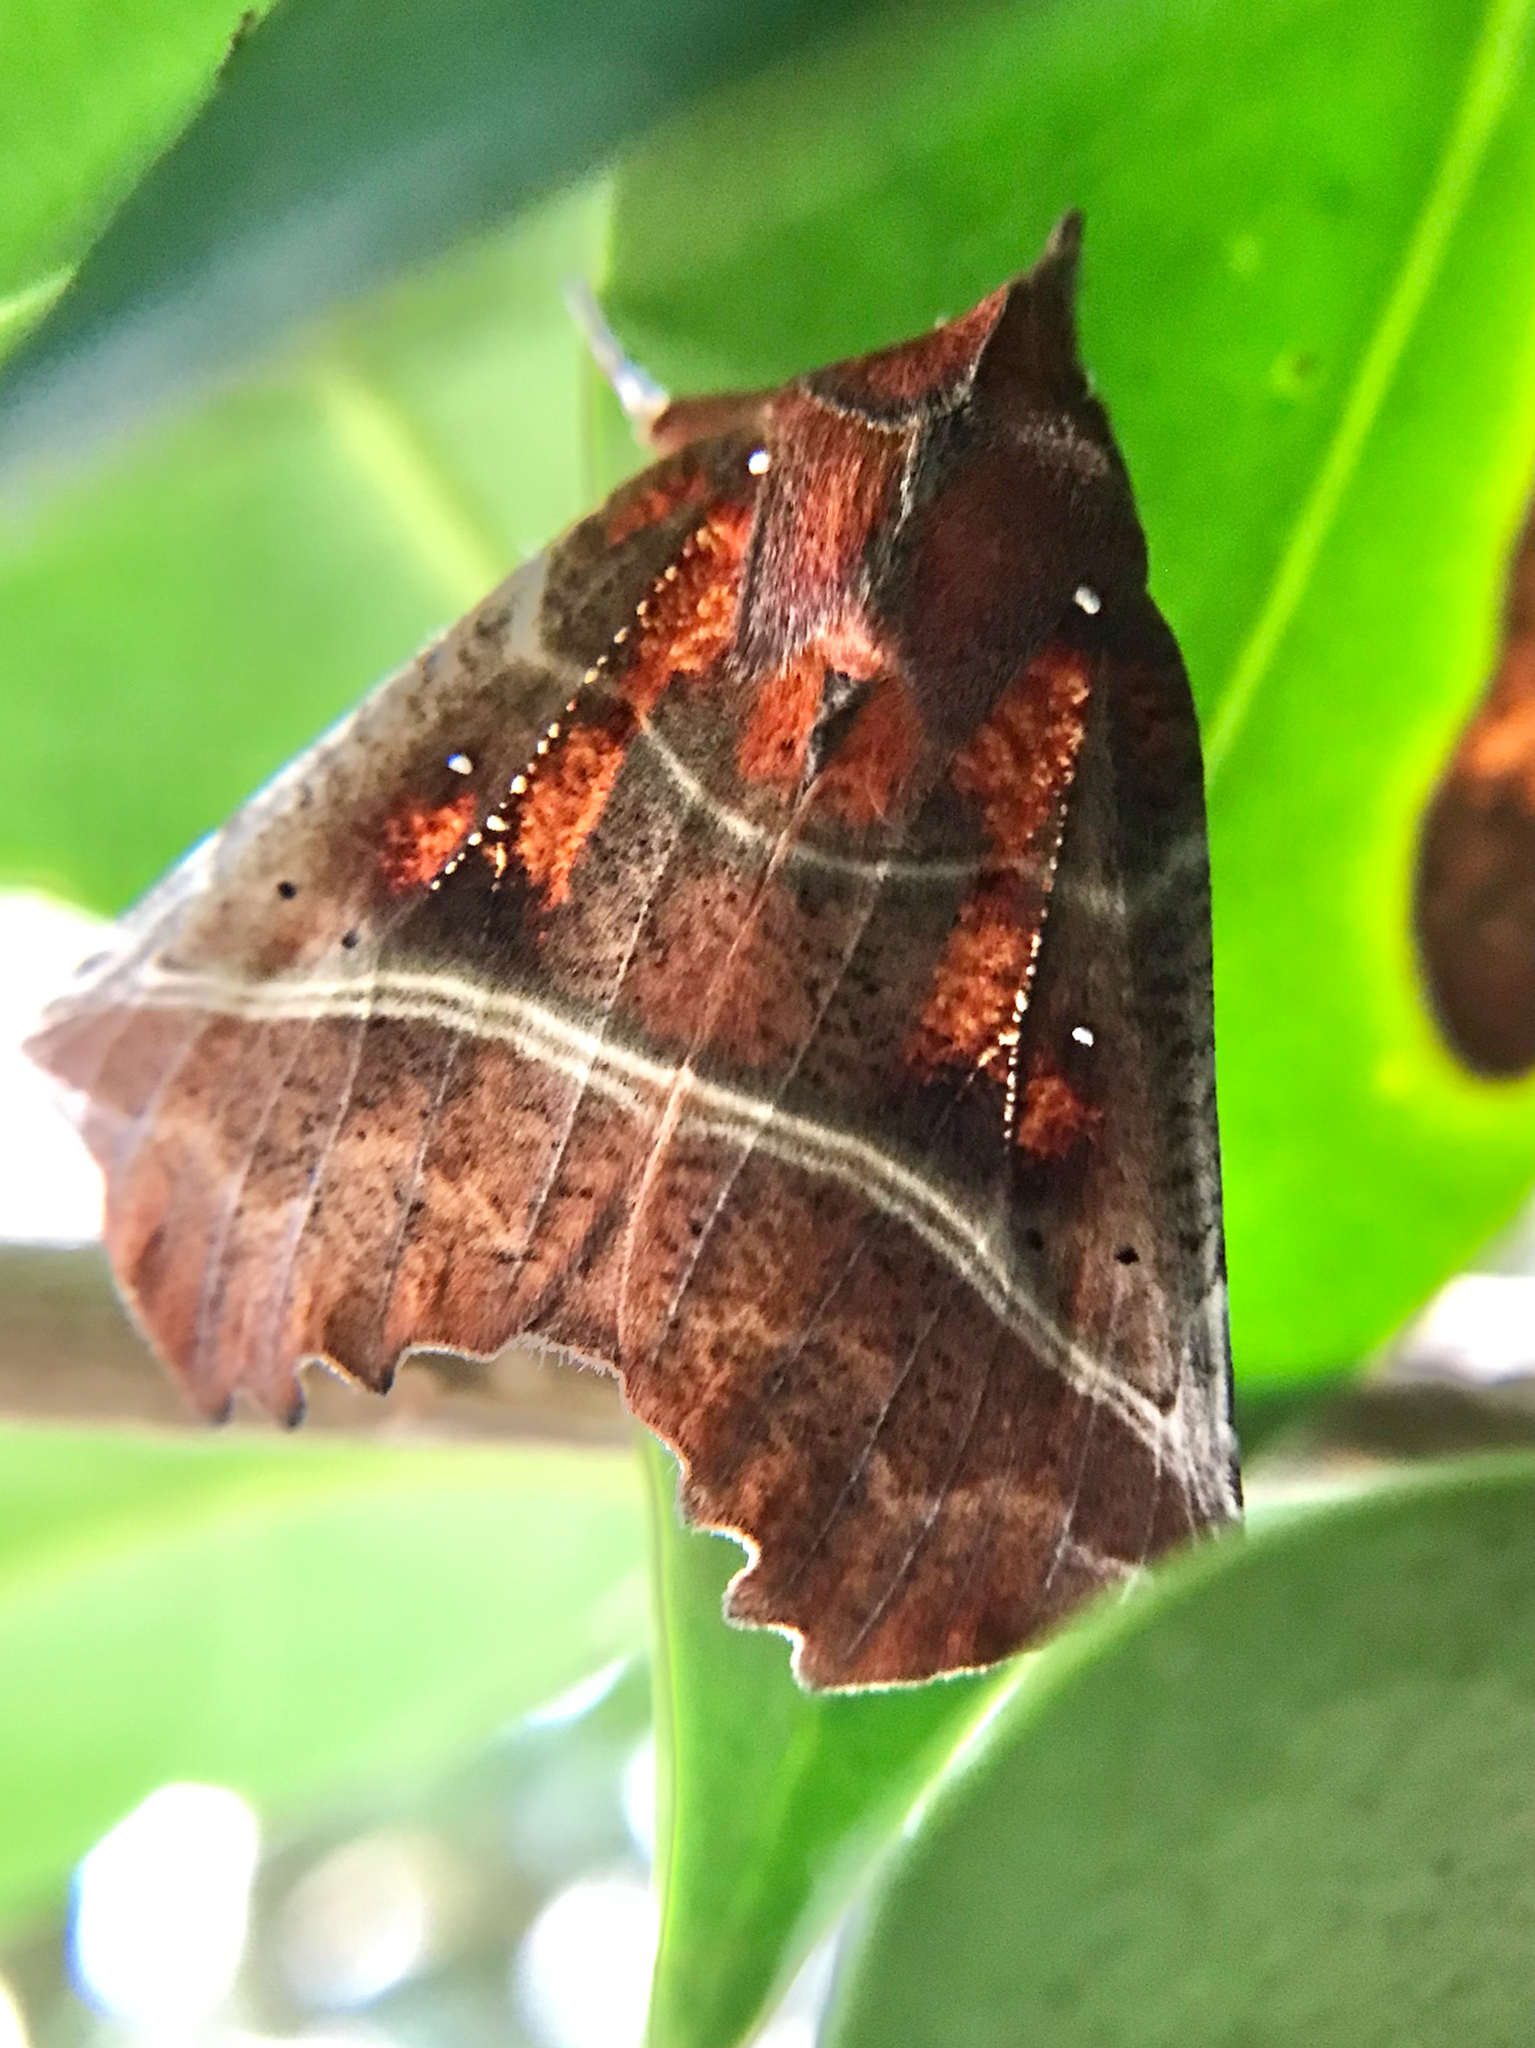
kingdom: Animalia
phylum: Arthropoda
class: Insecta
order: Lepidoptera
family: Erebidae
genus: Scoliopteryx
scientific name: Scoliopteryx libatrix
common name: Herald
